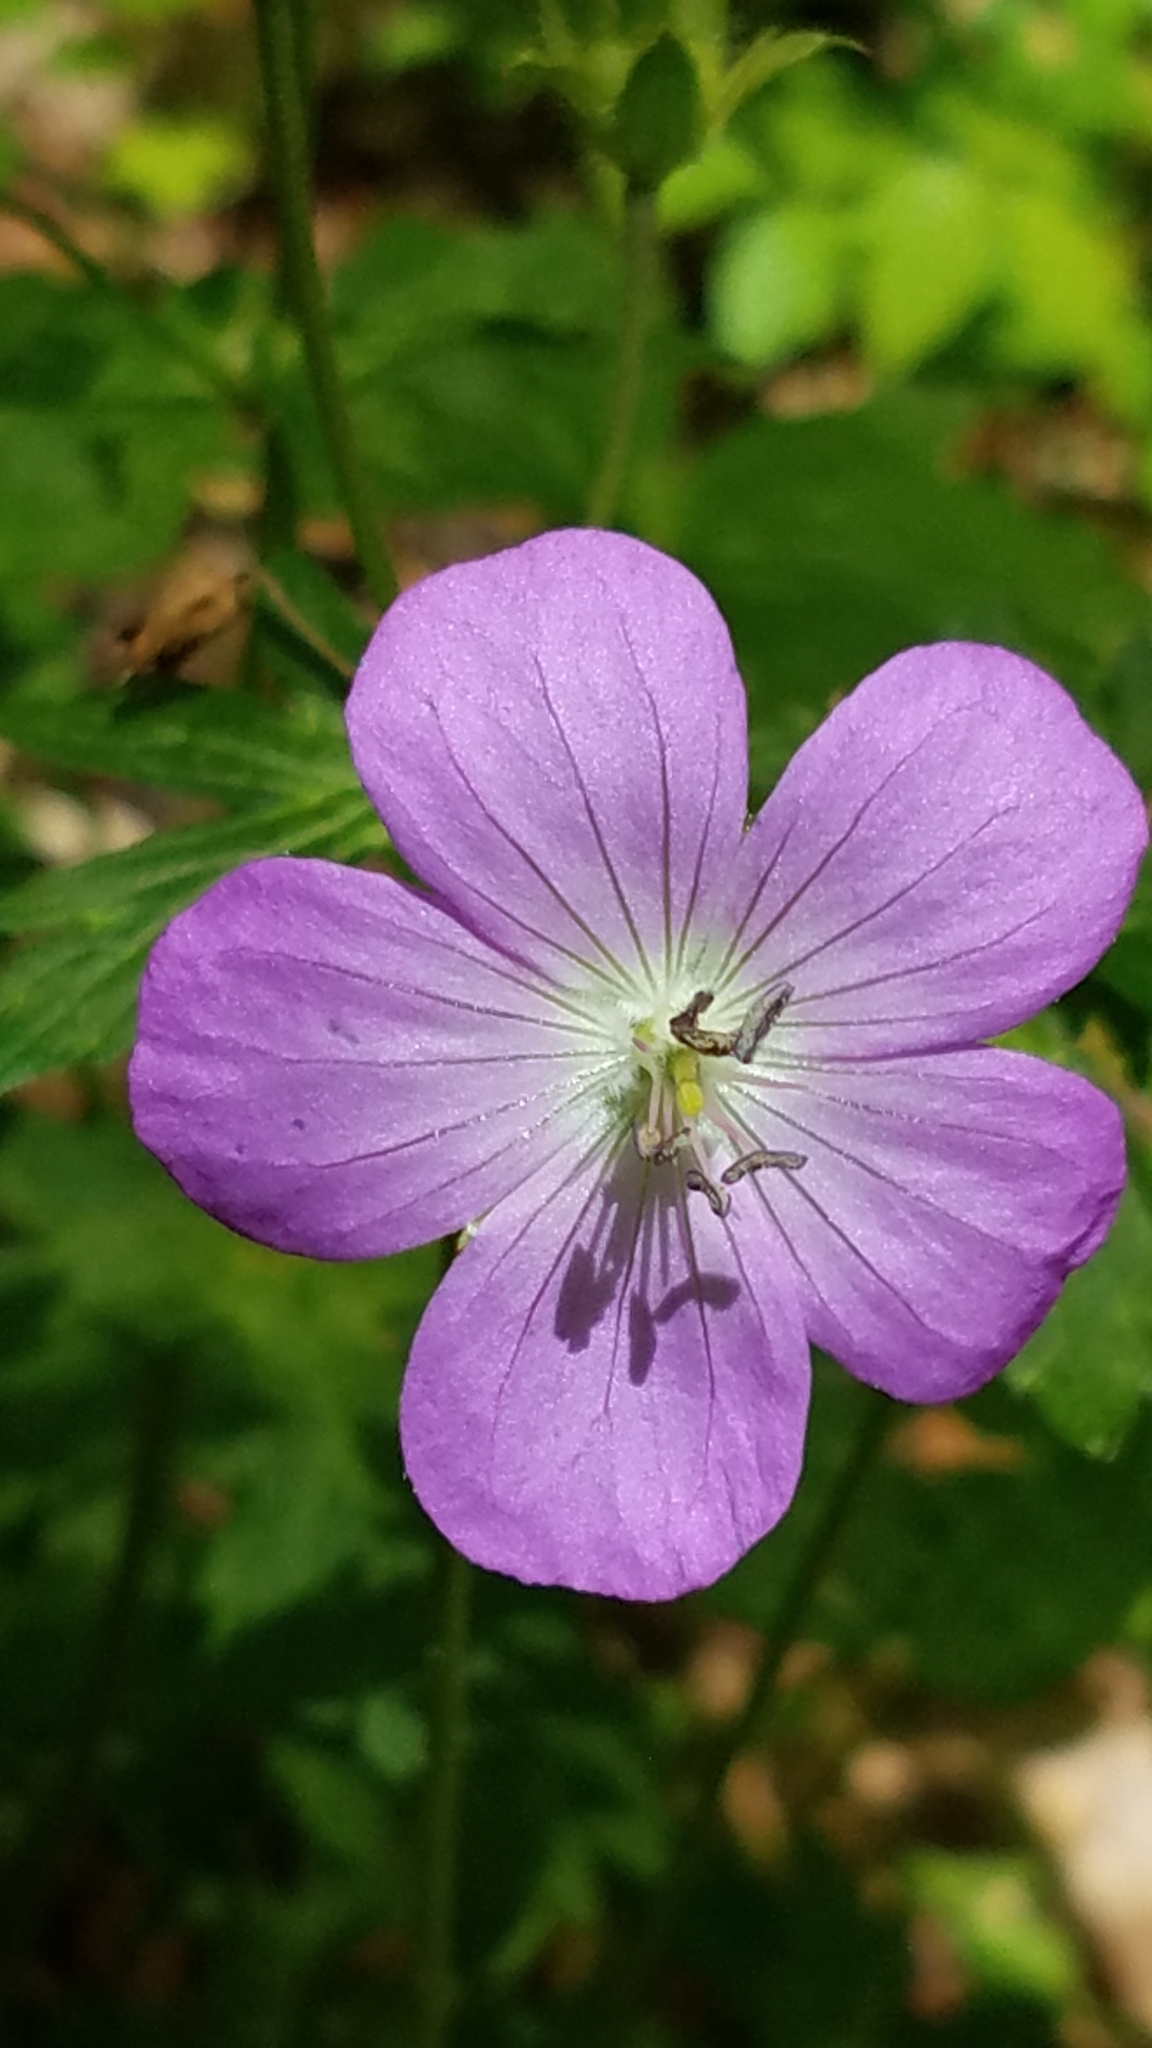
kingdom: Plantae
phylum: Tracheophyta
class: Magnoliopsida
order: Geraniales
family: Geraniaceae
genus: Geranium
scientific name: Geranium maculatum
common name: Spotted geranium
